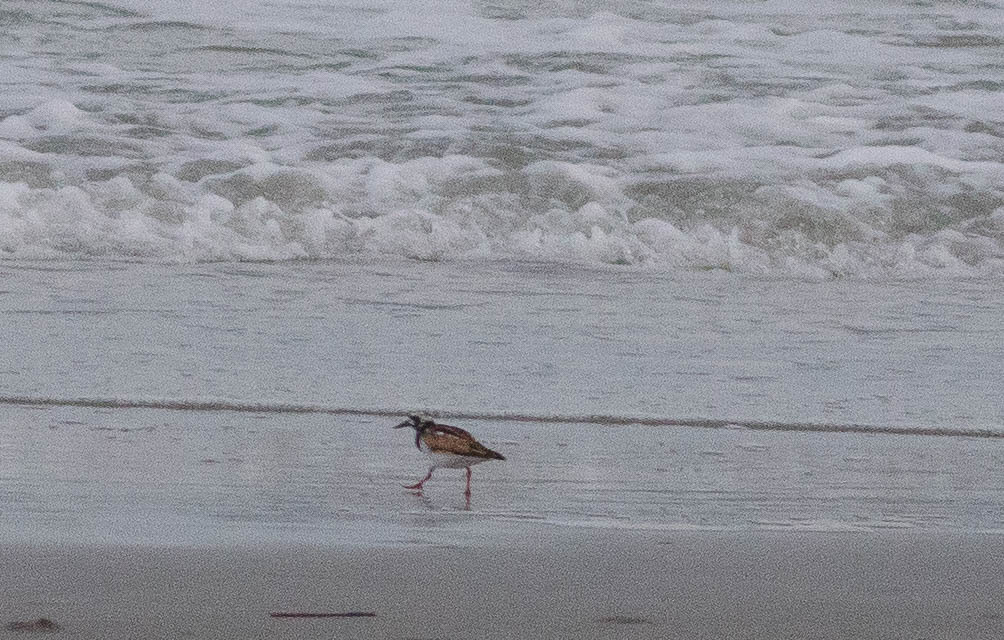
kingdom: Animalia
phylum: Chordata
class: Aves
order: Charadriiformes
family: Scolopacidae
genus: Arenaria
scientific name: Arenaria interpres
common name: Ruddy turnstone
